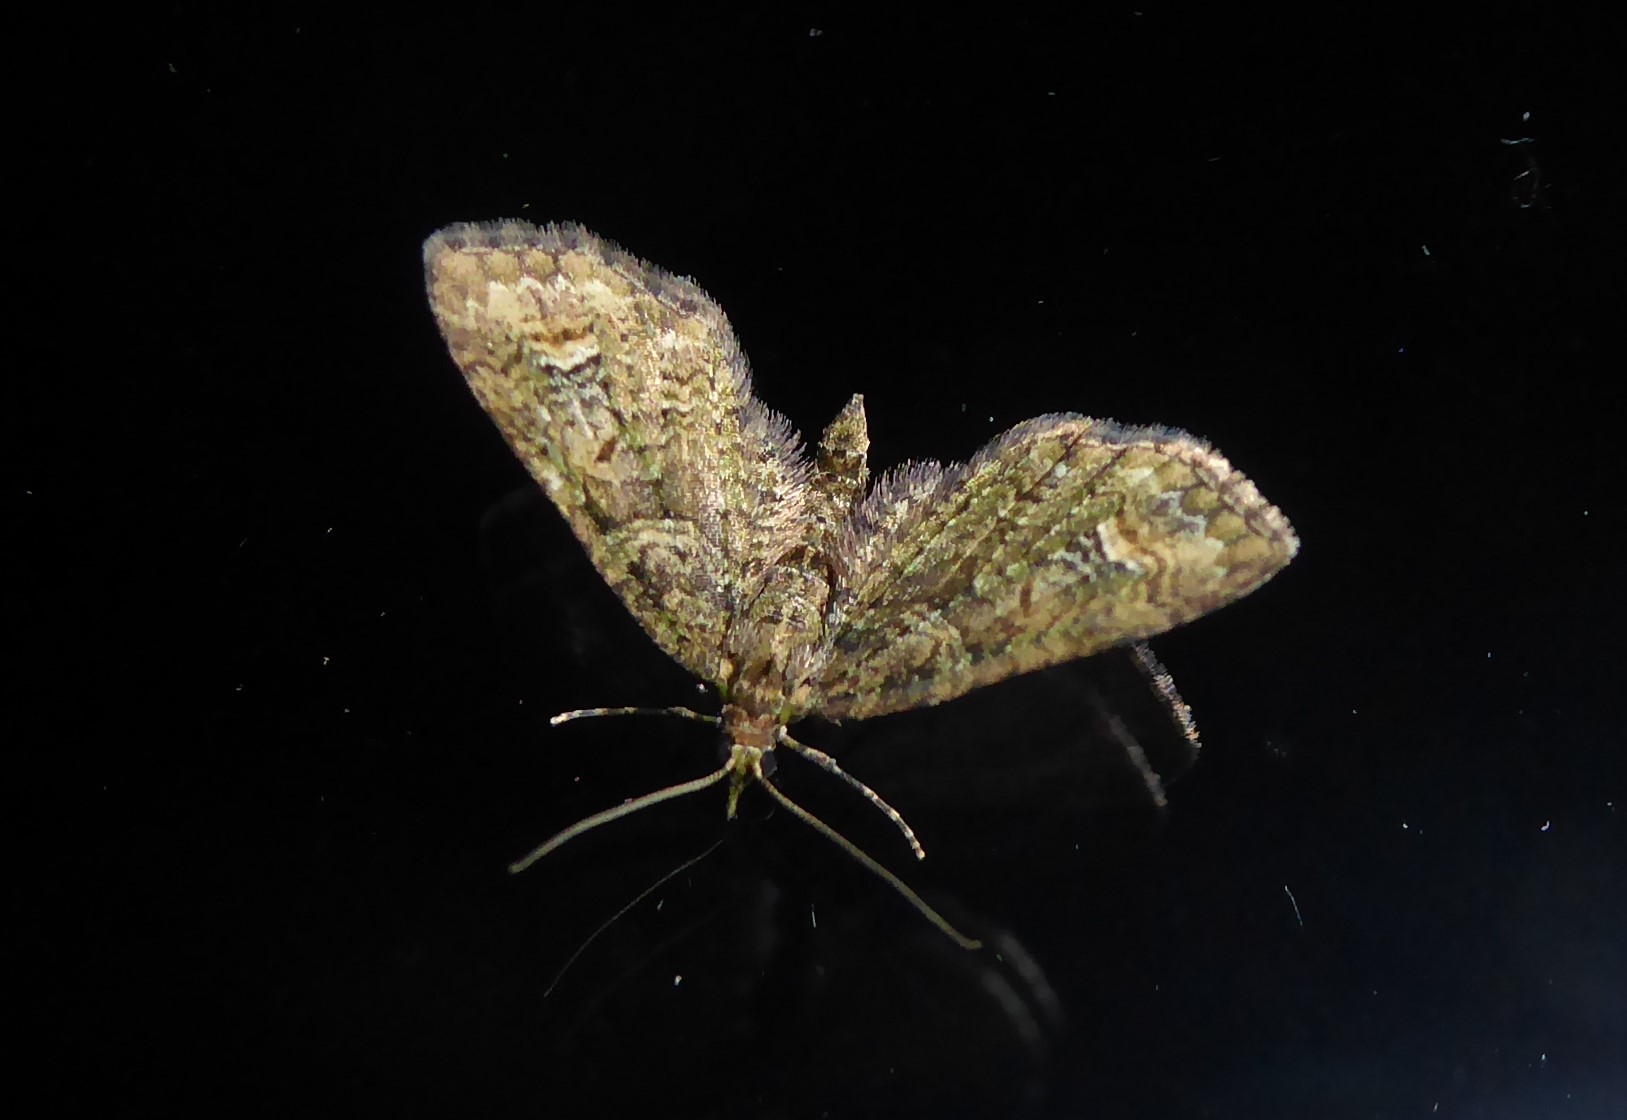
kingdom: Animalia
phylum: Arthropoda
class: Insecta
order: Lepidoptera
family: Geometridae
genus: Idaea
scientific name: Idaea mutanda
